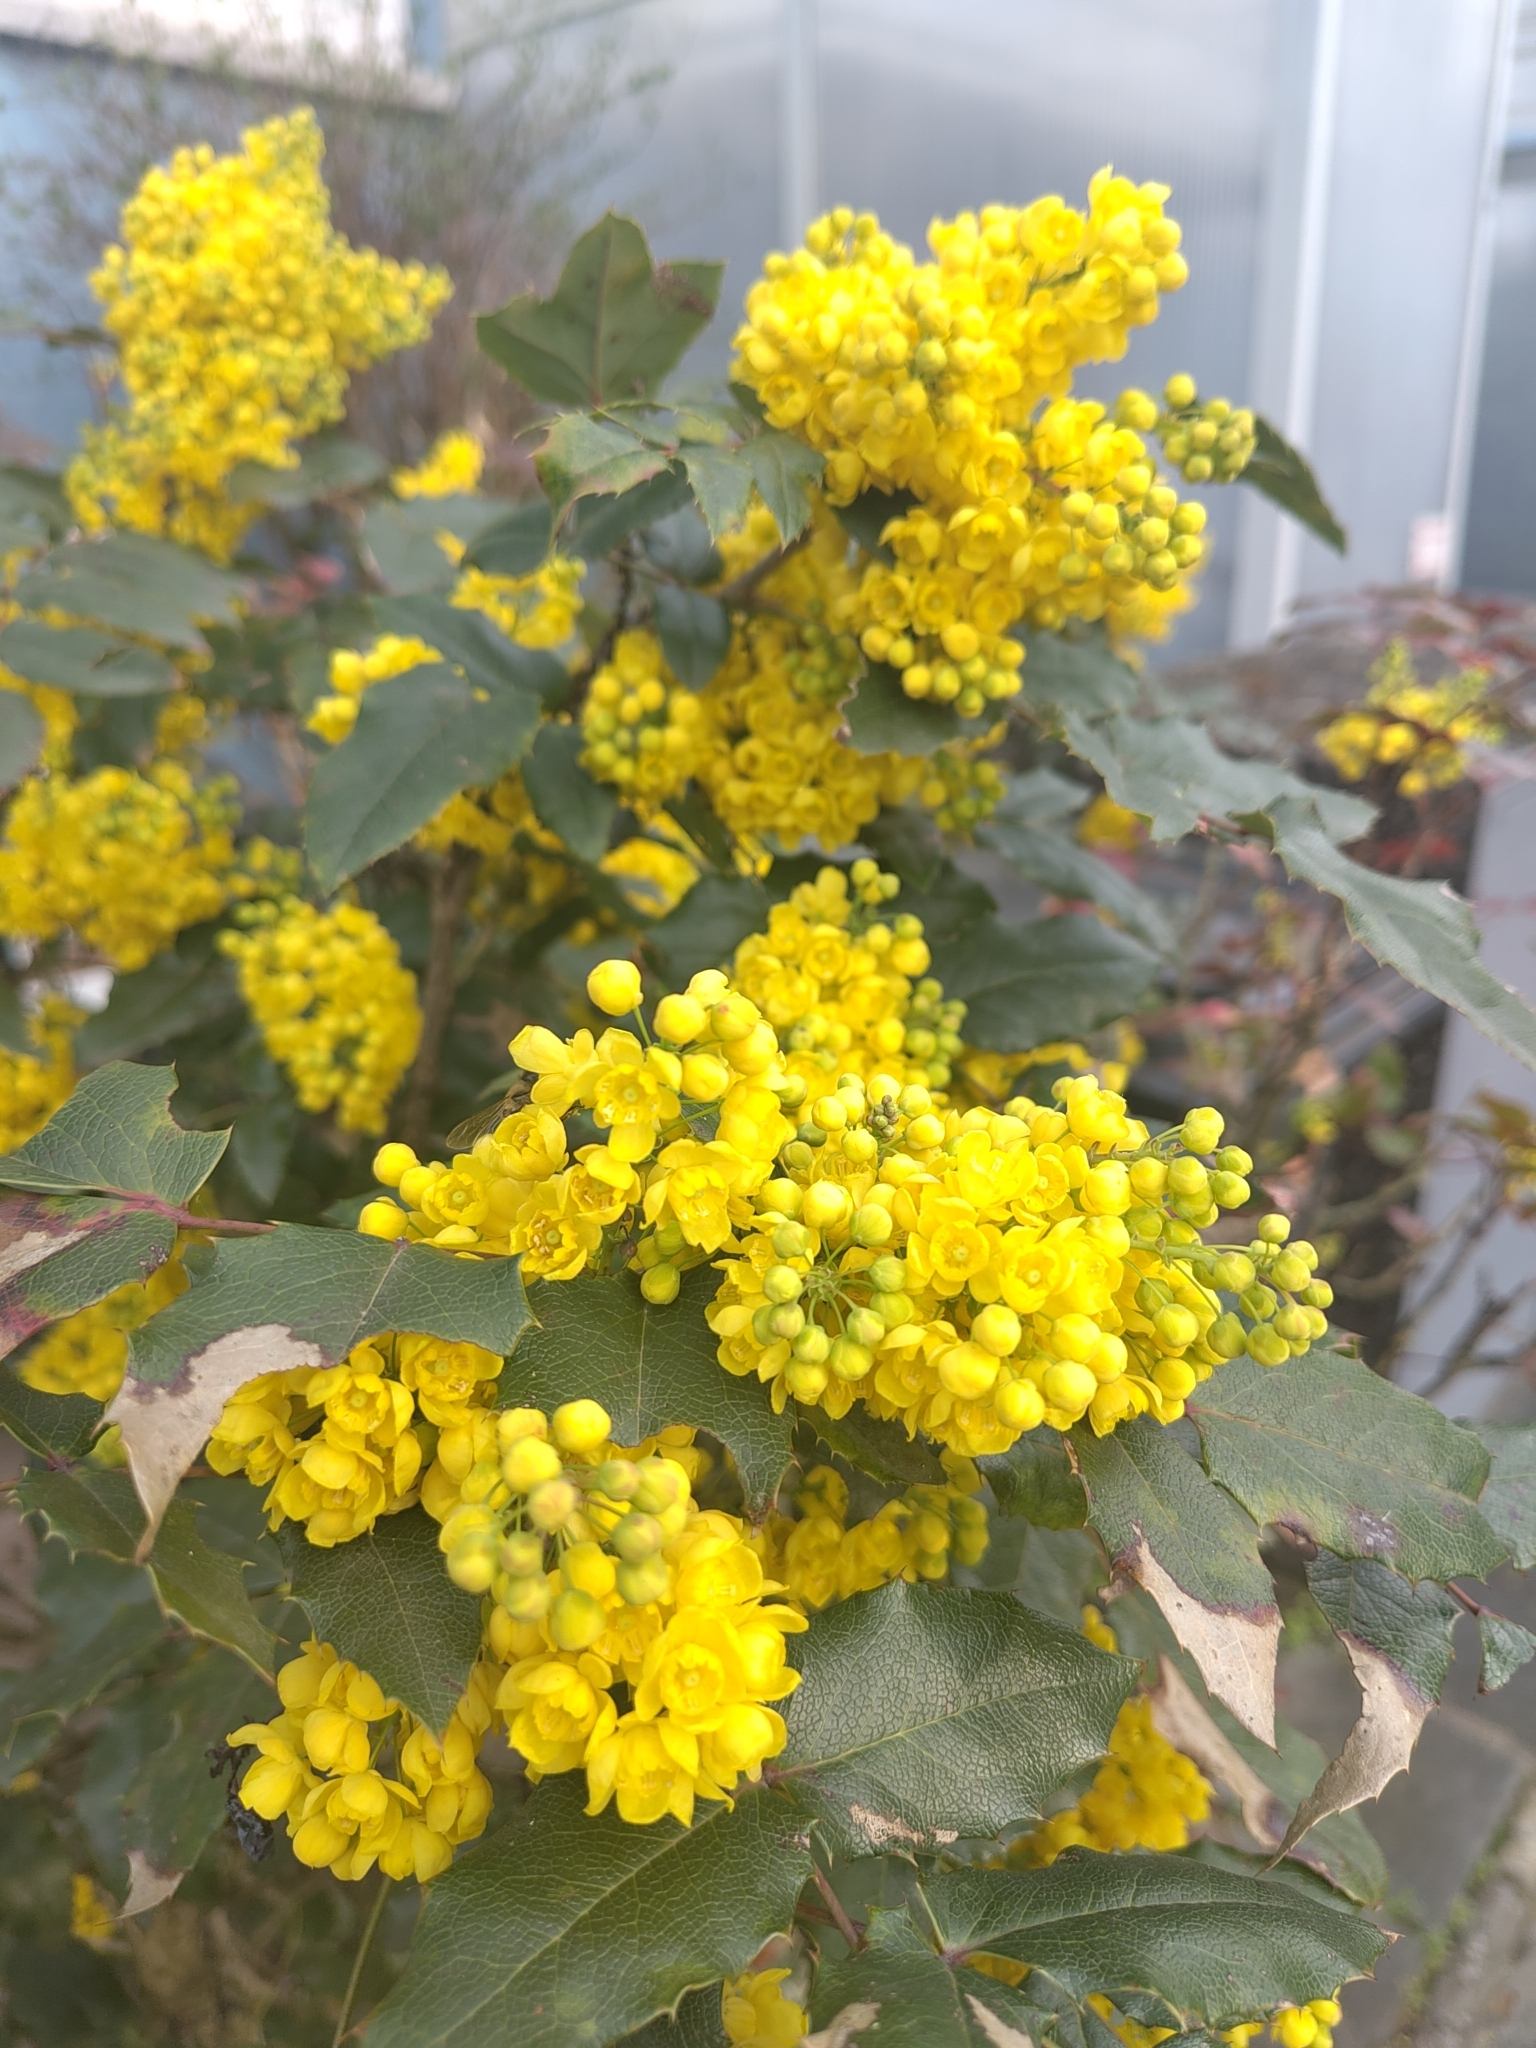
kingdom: Plantae
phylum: Tracheophyta
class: Magnoliopsida
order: Ranunculales
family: Berberidaceae
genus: Mahonia
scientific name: Mahonia aquifolium
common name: Oregon-grape
